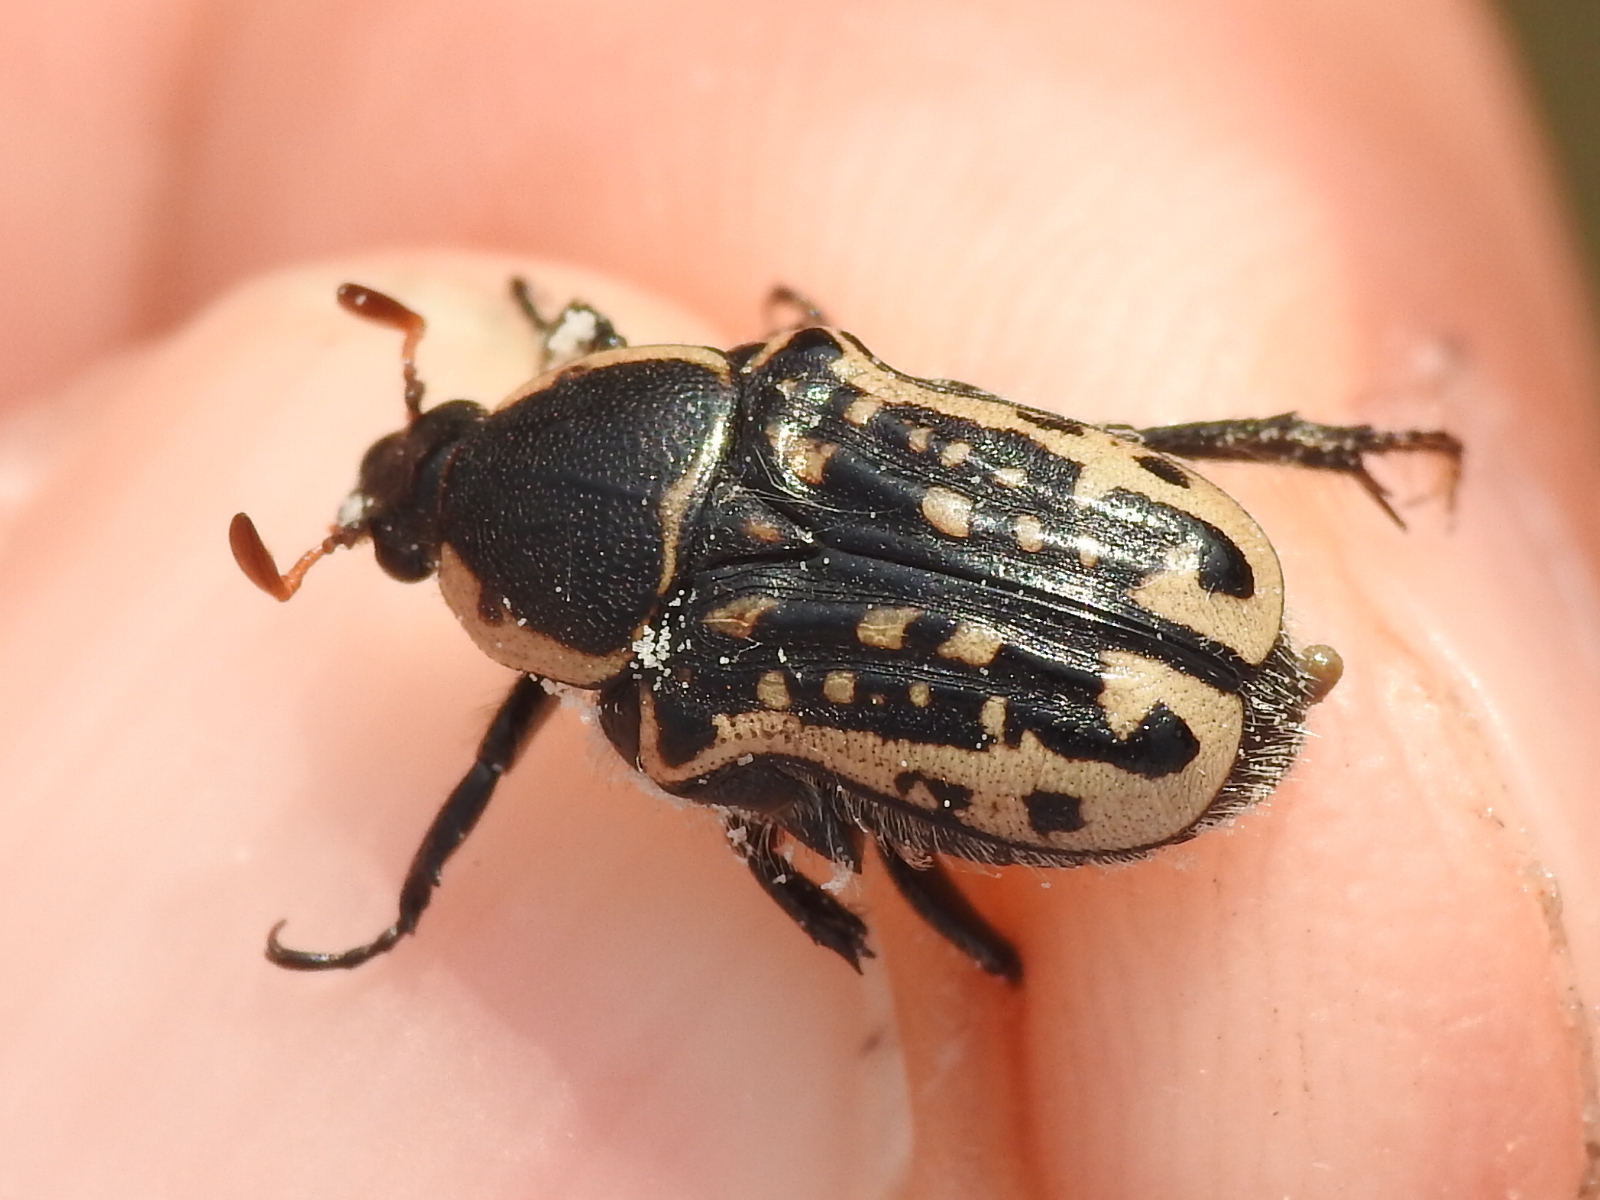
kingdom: Animalia
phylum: Arthropoda
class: Insecta
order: Coleoptera
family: Scarabaeidae
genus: Euphoria
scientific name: Euphoria kernii
